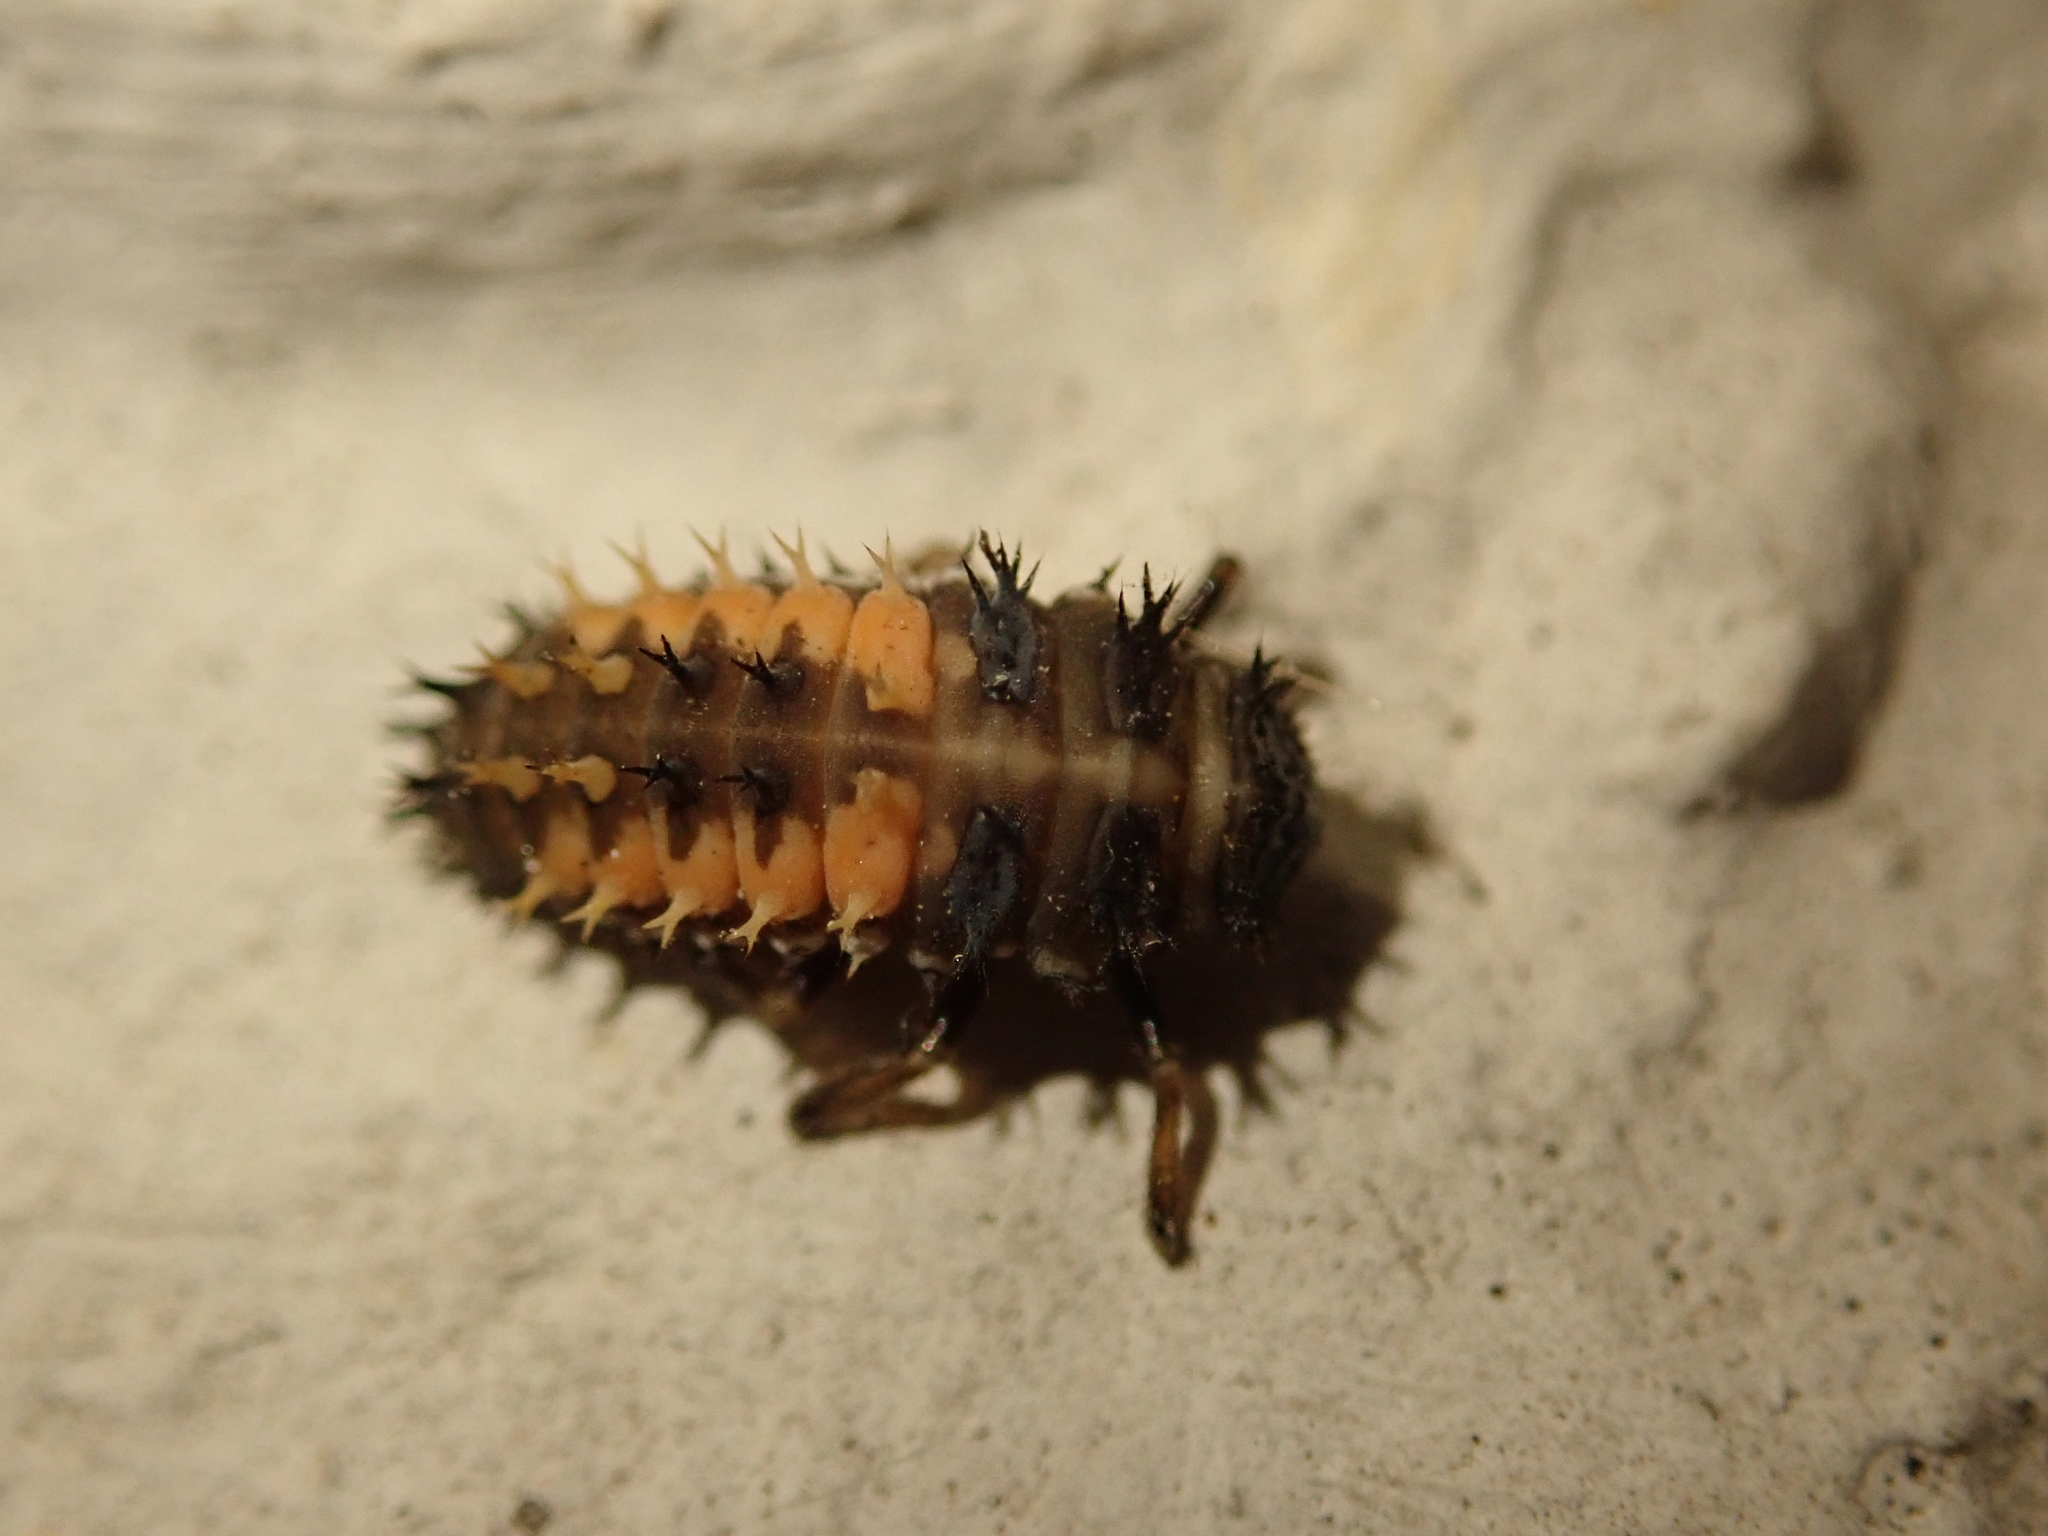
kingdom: Animalia
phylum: Arthropoda
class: Insecta
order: Coleoptera
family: Coccinellidae
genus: Harmonia
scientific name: Harmonia axyridis
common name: Harlequin ladybird
